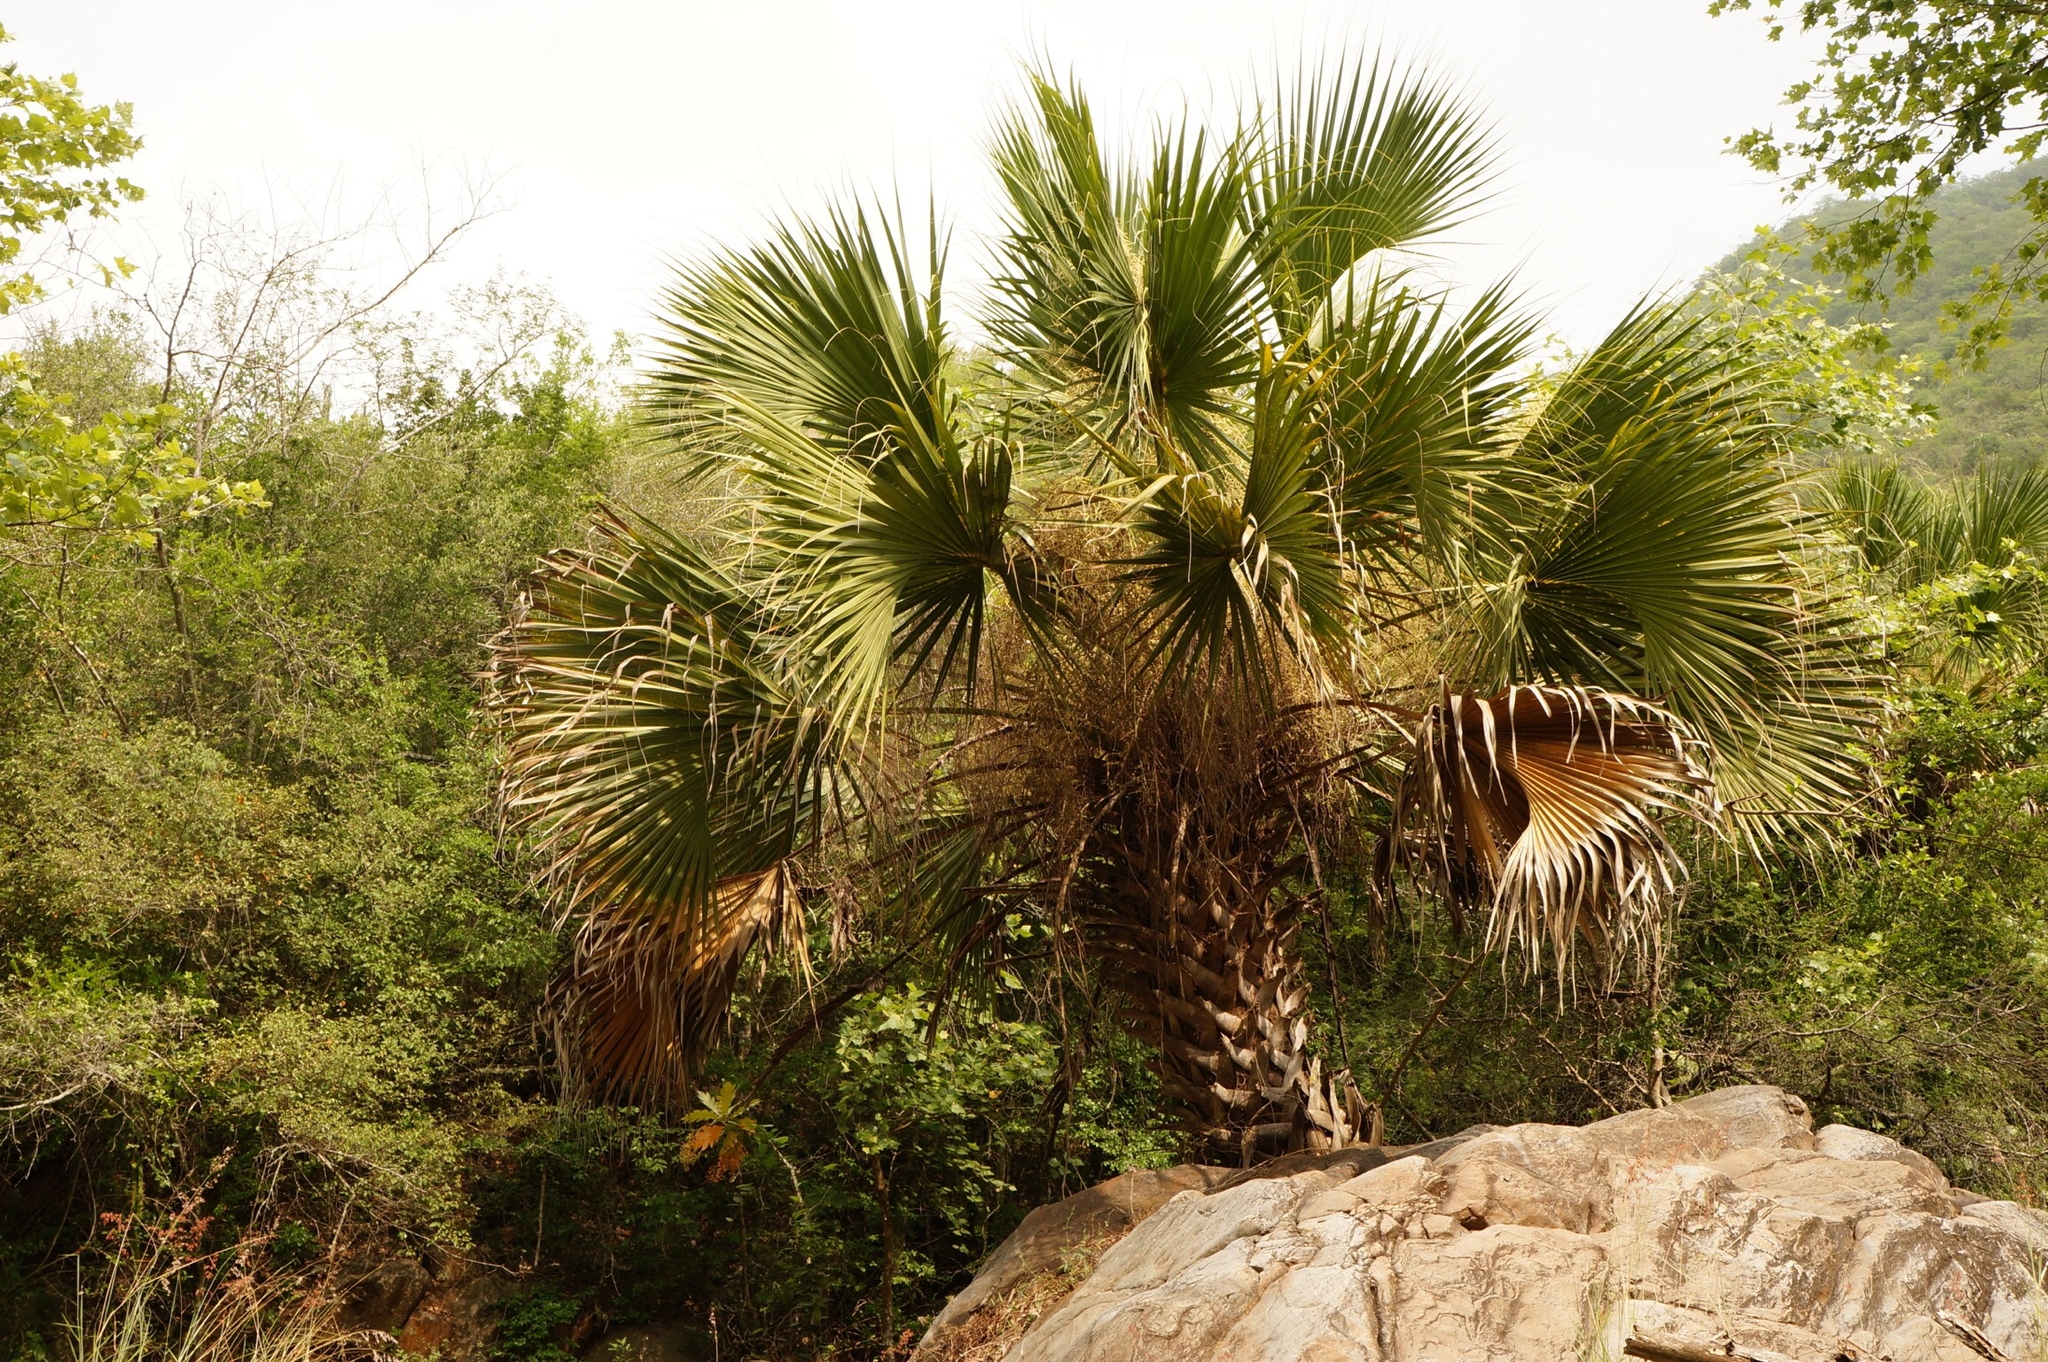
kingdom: Plantae
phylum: Tracheophyta
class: Liliopsida
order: Arecales
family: Arecaceae
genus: Sabal
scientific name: Sabal mexicana
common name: Texas palmetto
